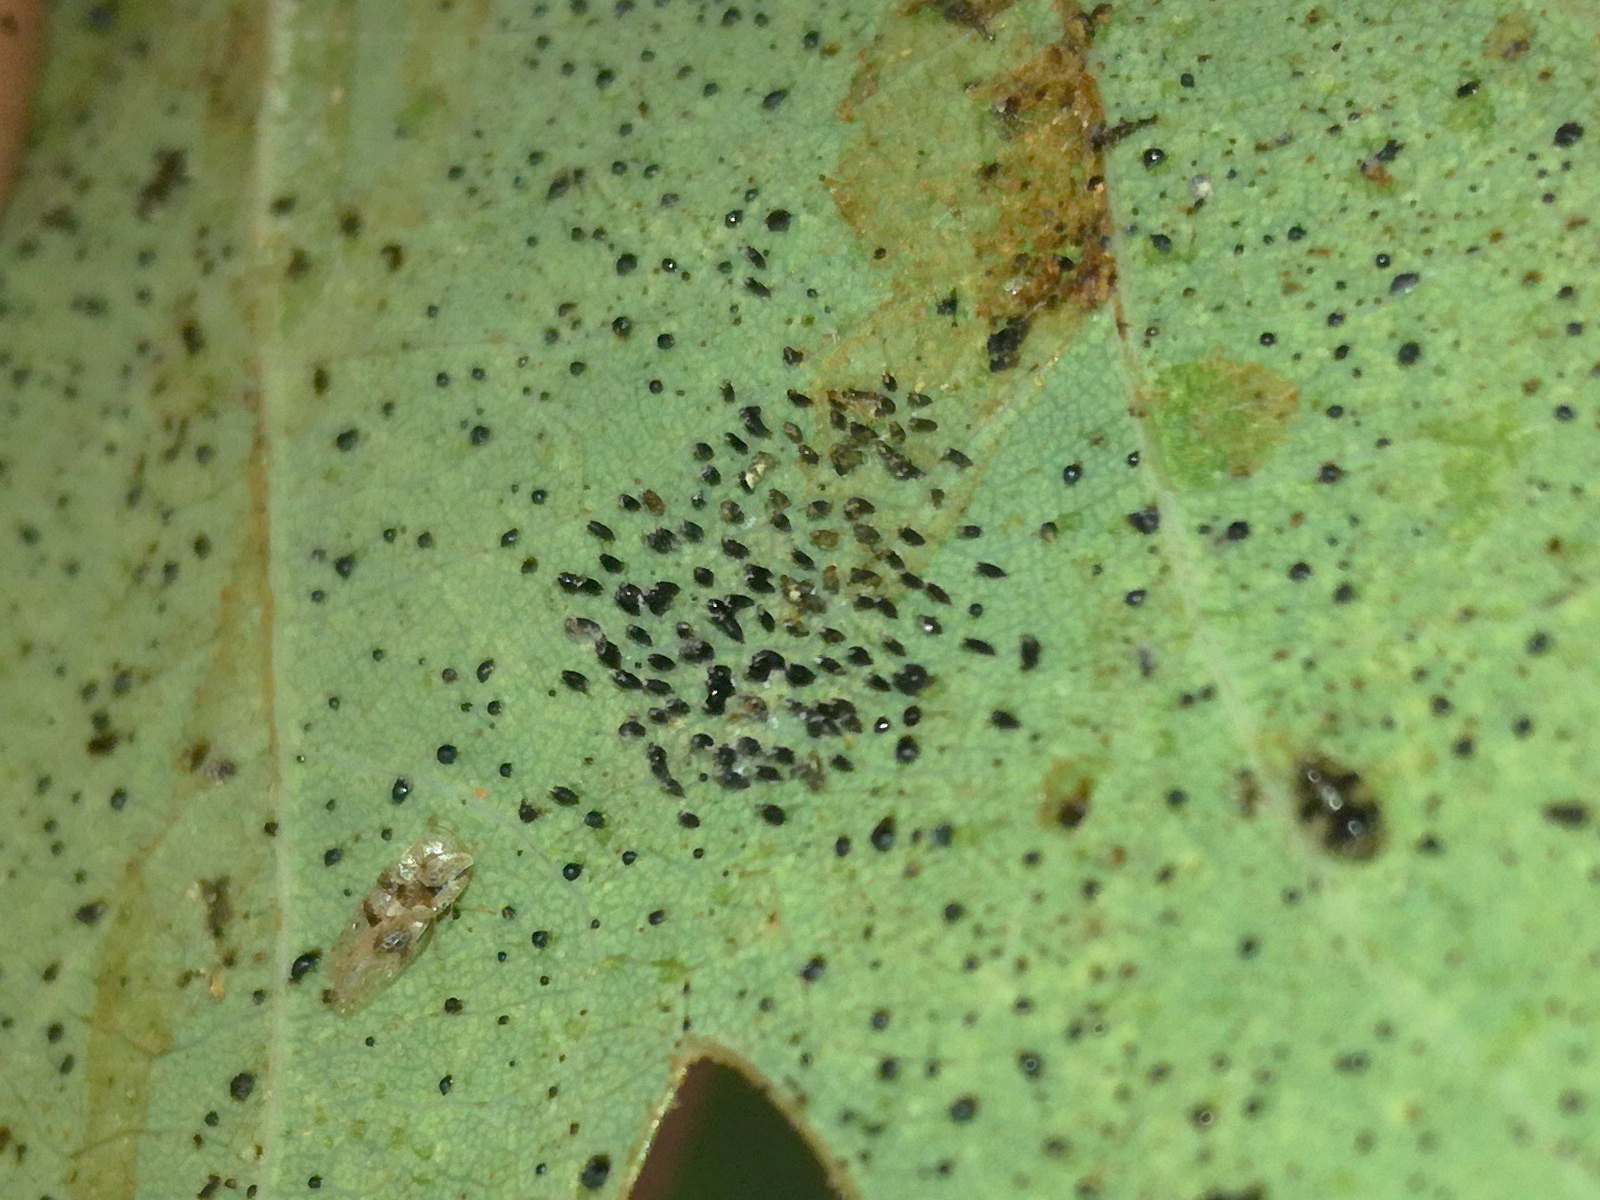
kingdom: Animalia
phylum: Arthropoda
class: Insecta
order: Hemiptera
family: Tingidae
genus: Corythucha
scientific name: Corythucha arcuata
